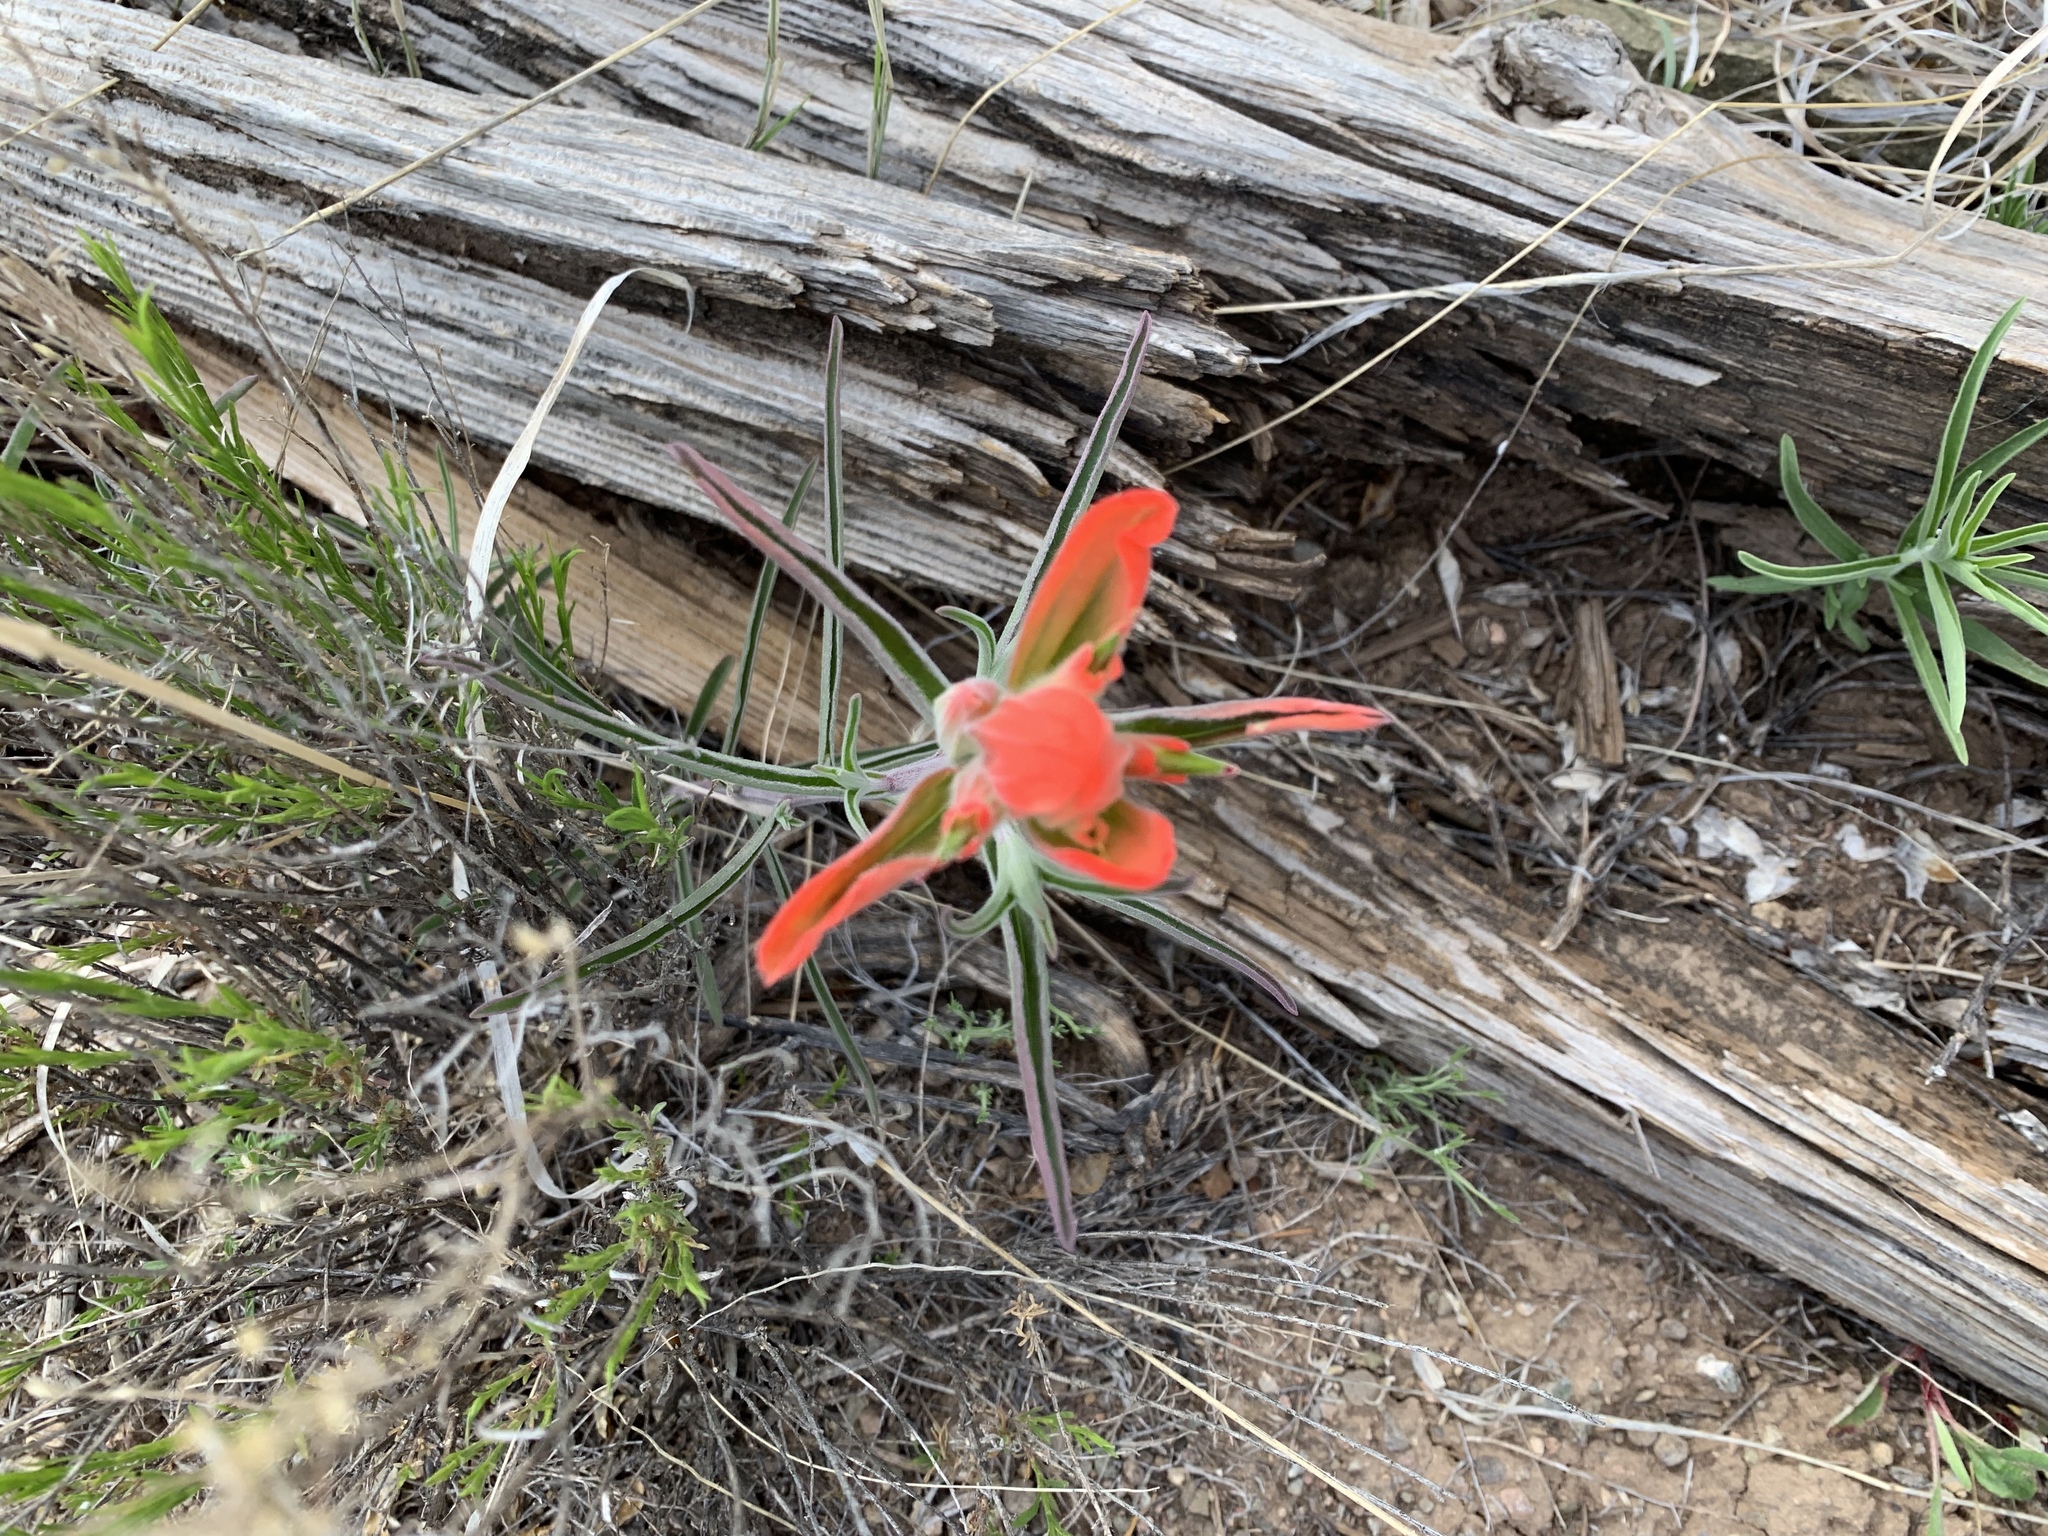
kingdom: Plantae
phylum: Tracheophyta
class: Magnoliopsida
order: Lamiales
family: Orobanchaceae
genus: Castilleja
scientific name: Castilleja integra
